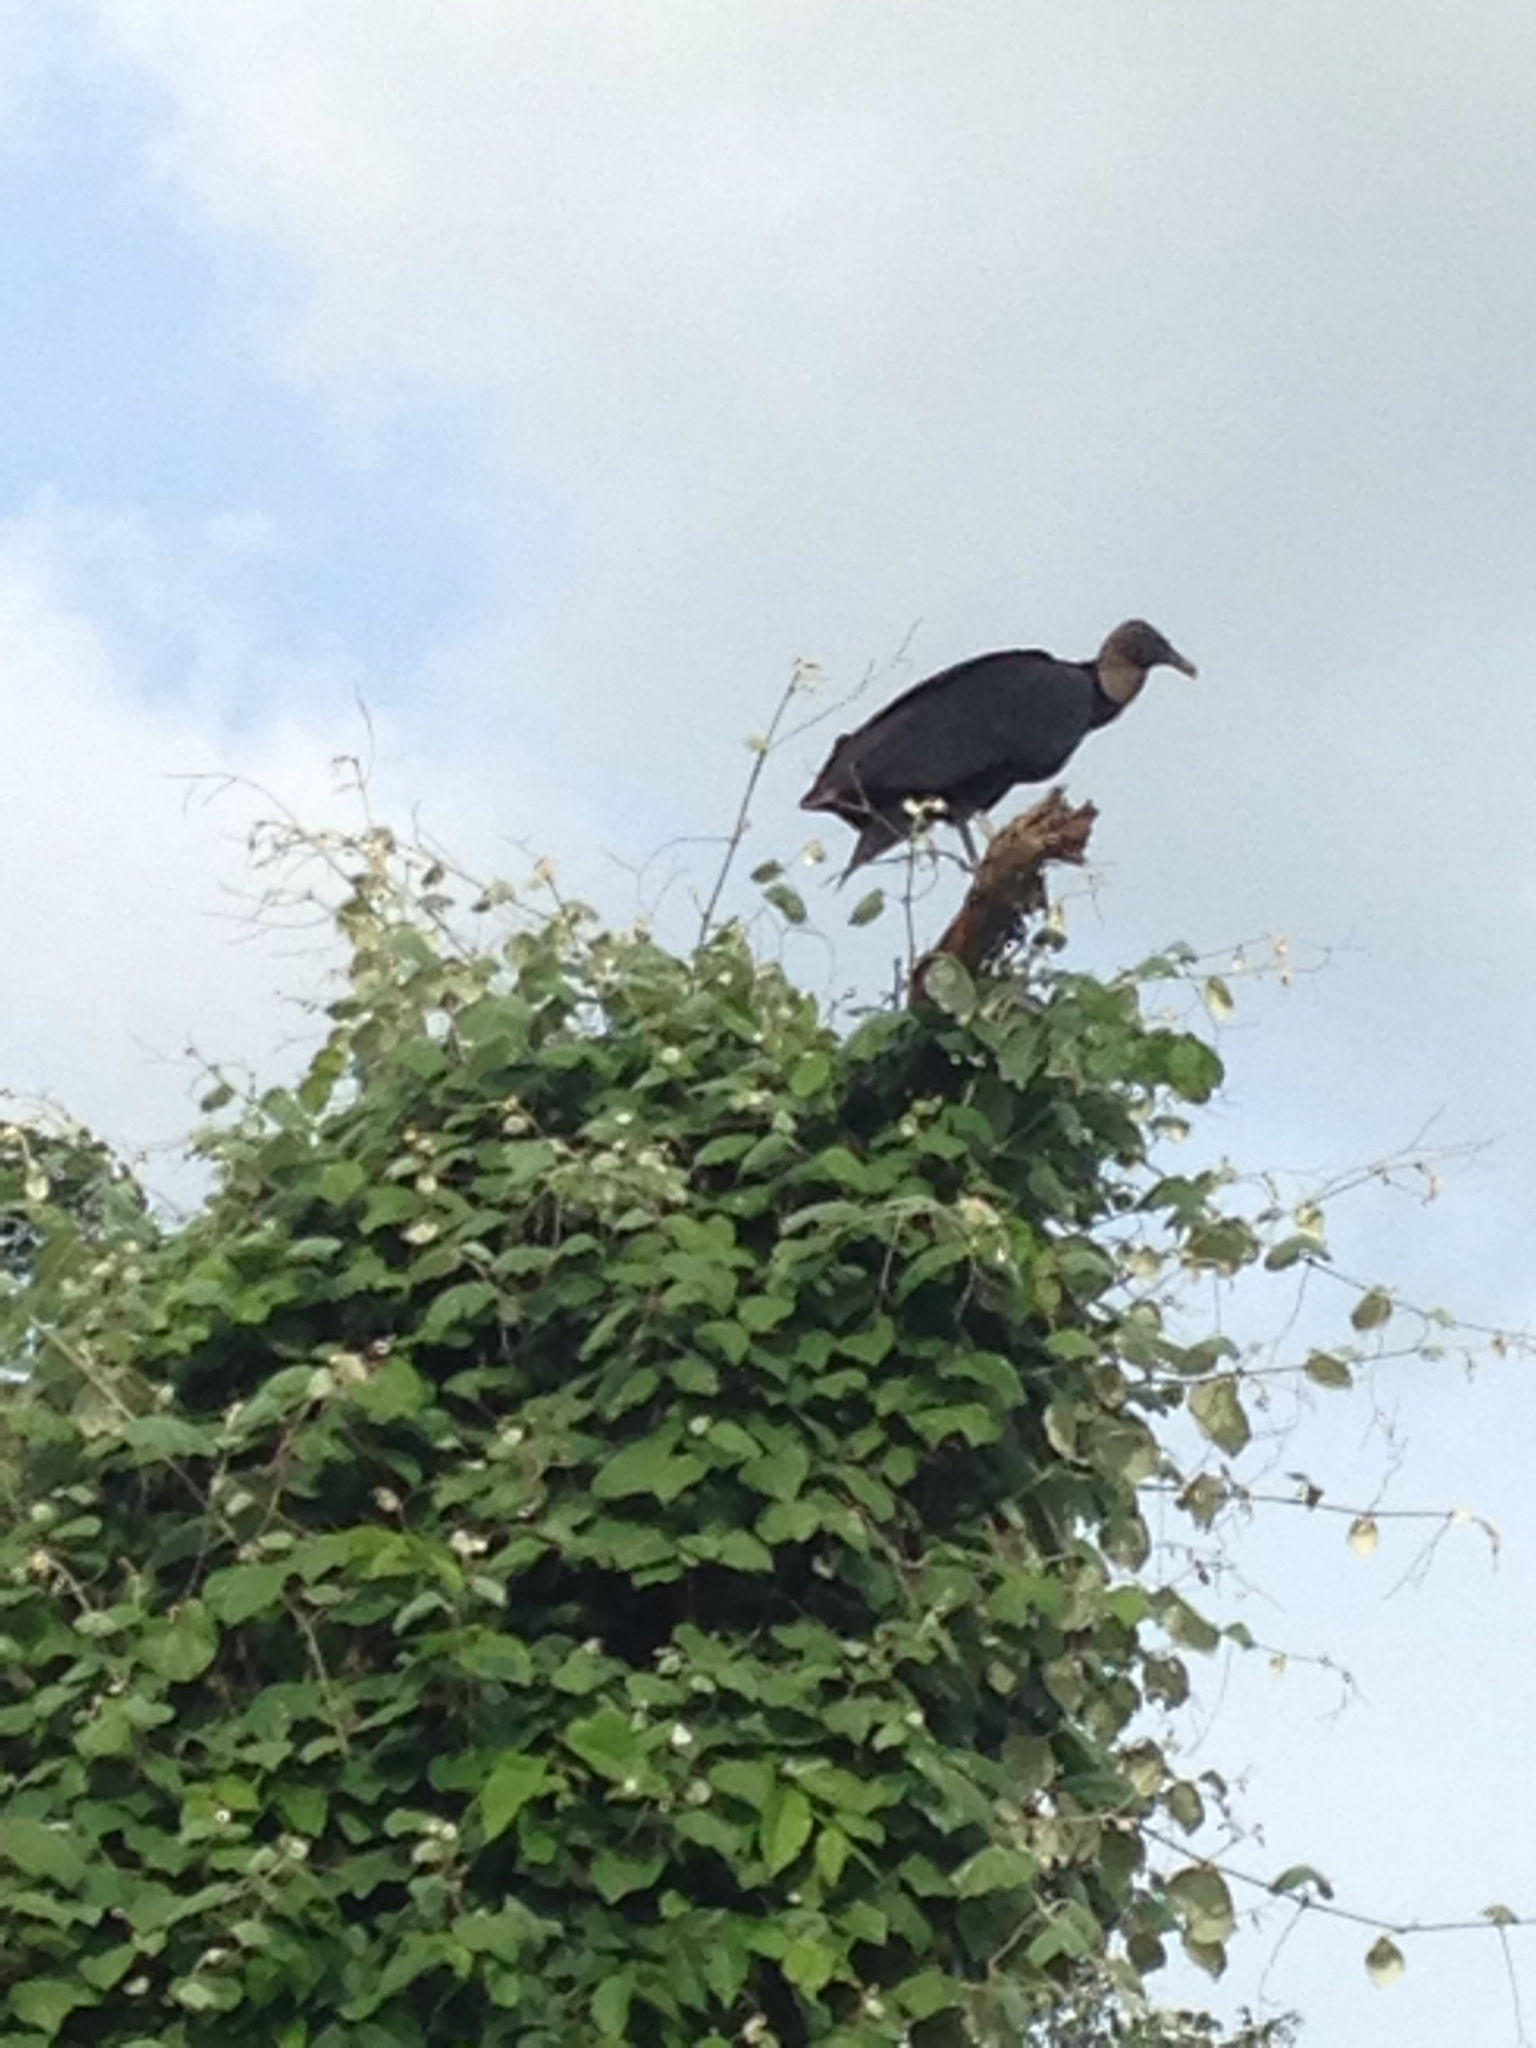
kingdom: Animalia
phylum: Chordata
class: Aves
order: Accipitriformes
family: Cathartidae
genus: Coragyps
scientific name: Coragyps atratus
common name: Black vulture
